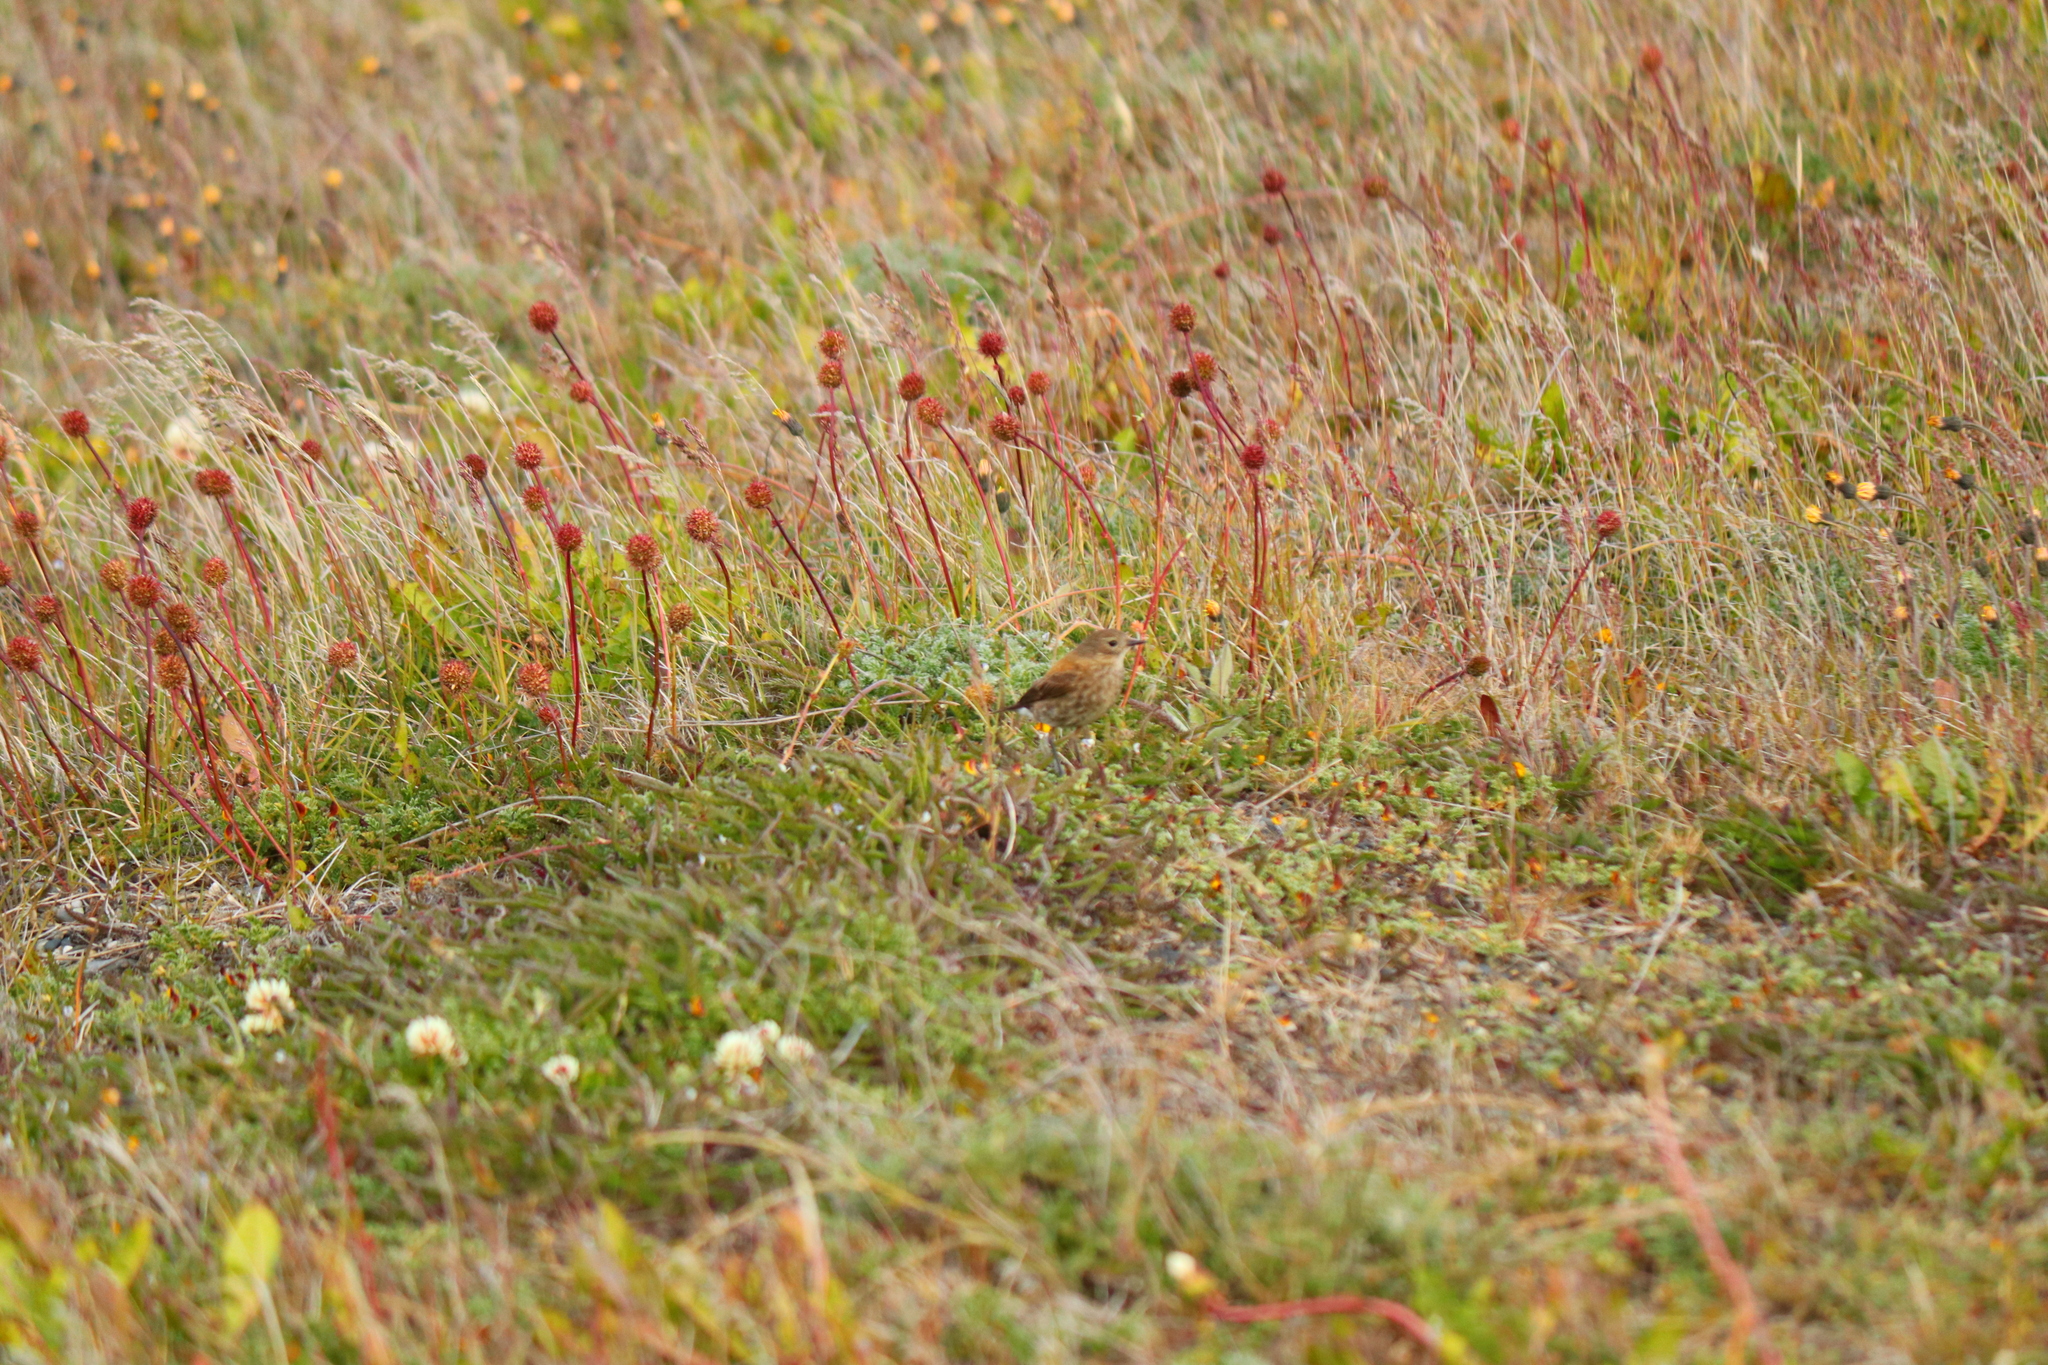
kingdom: Animalia
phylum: Chordata
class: Aves
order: Passeriformes
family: Tyrannidae
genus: Lessonia
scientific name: Lessonia rufa
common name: Austral negrito
